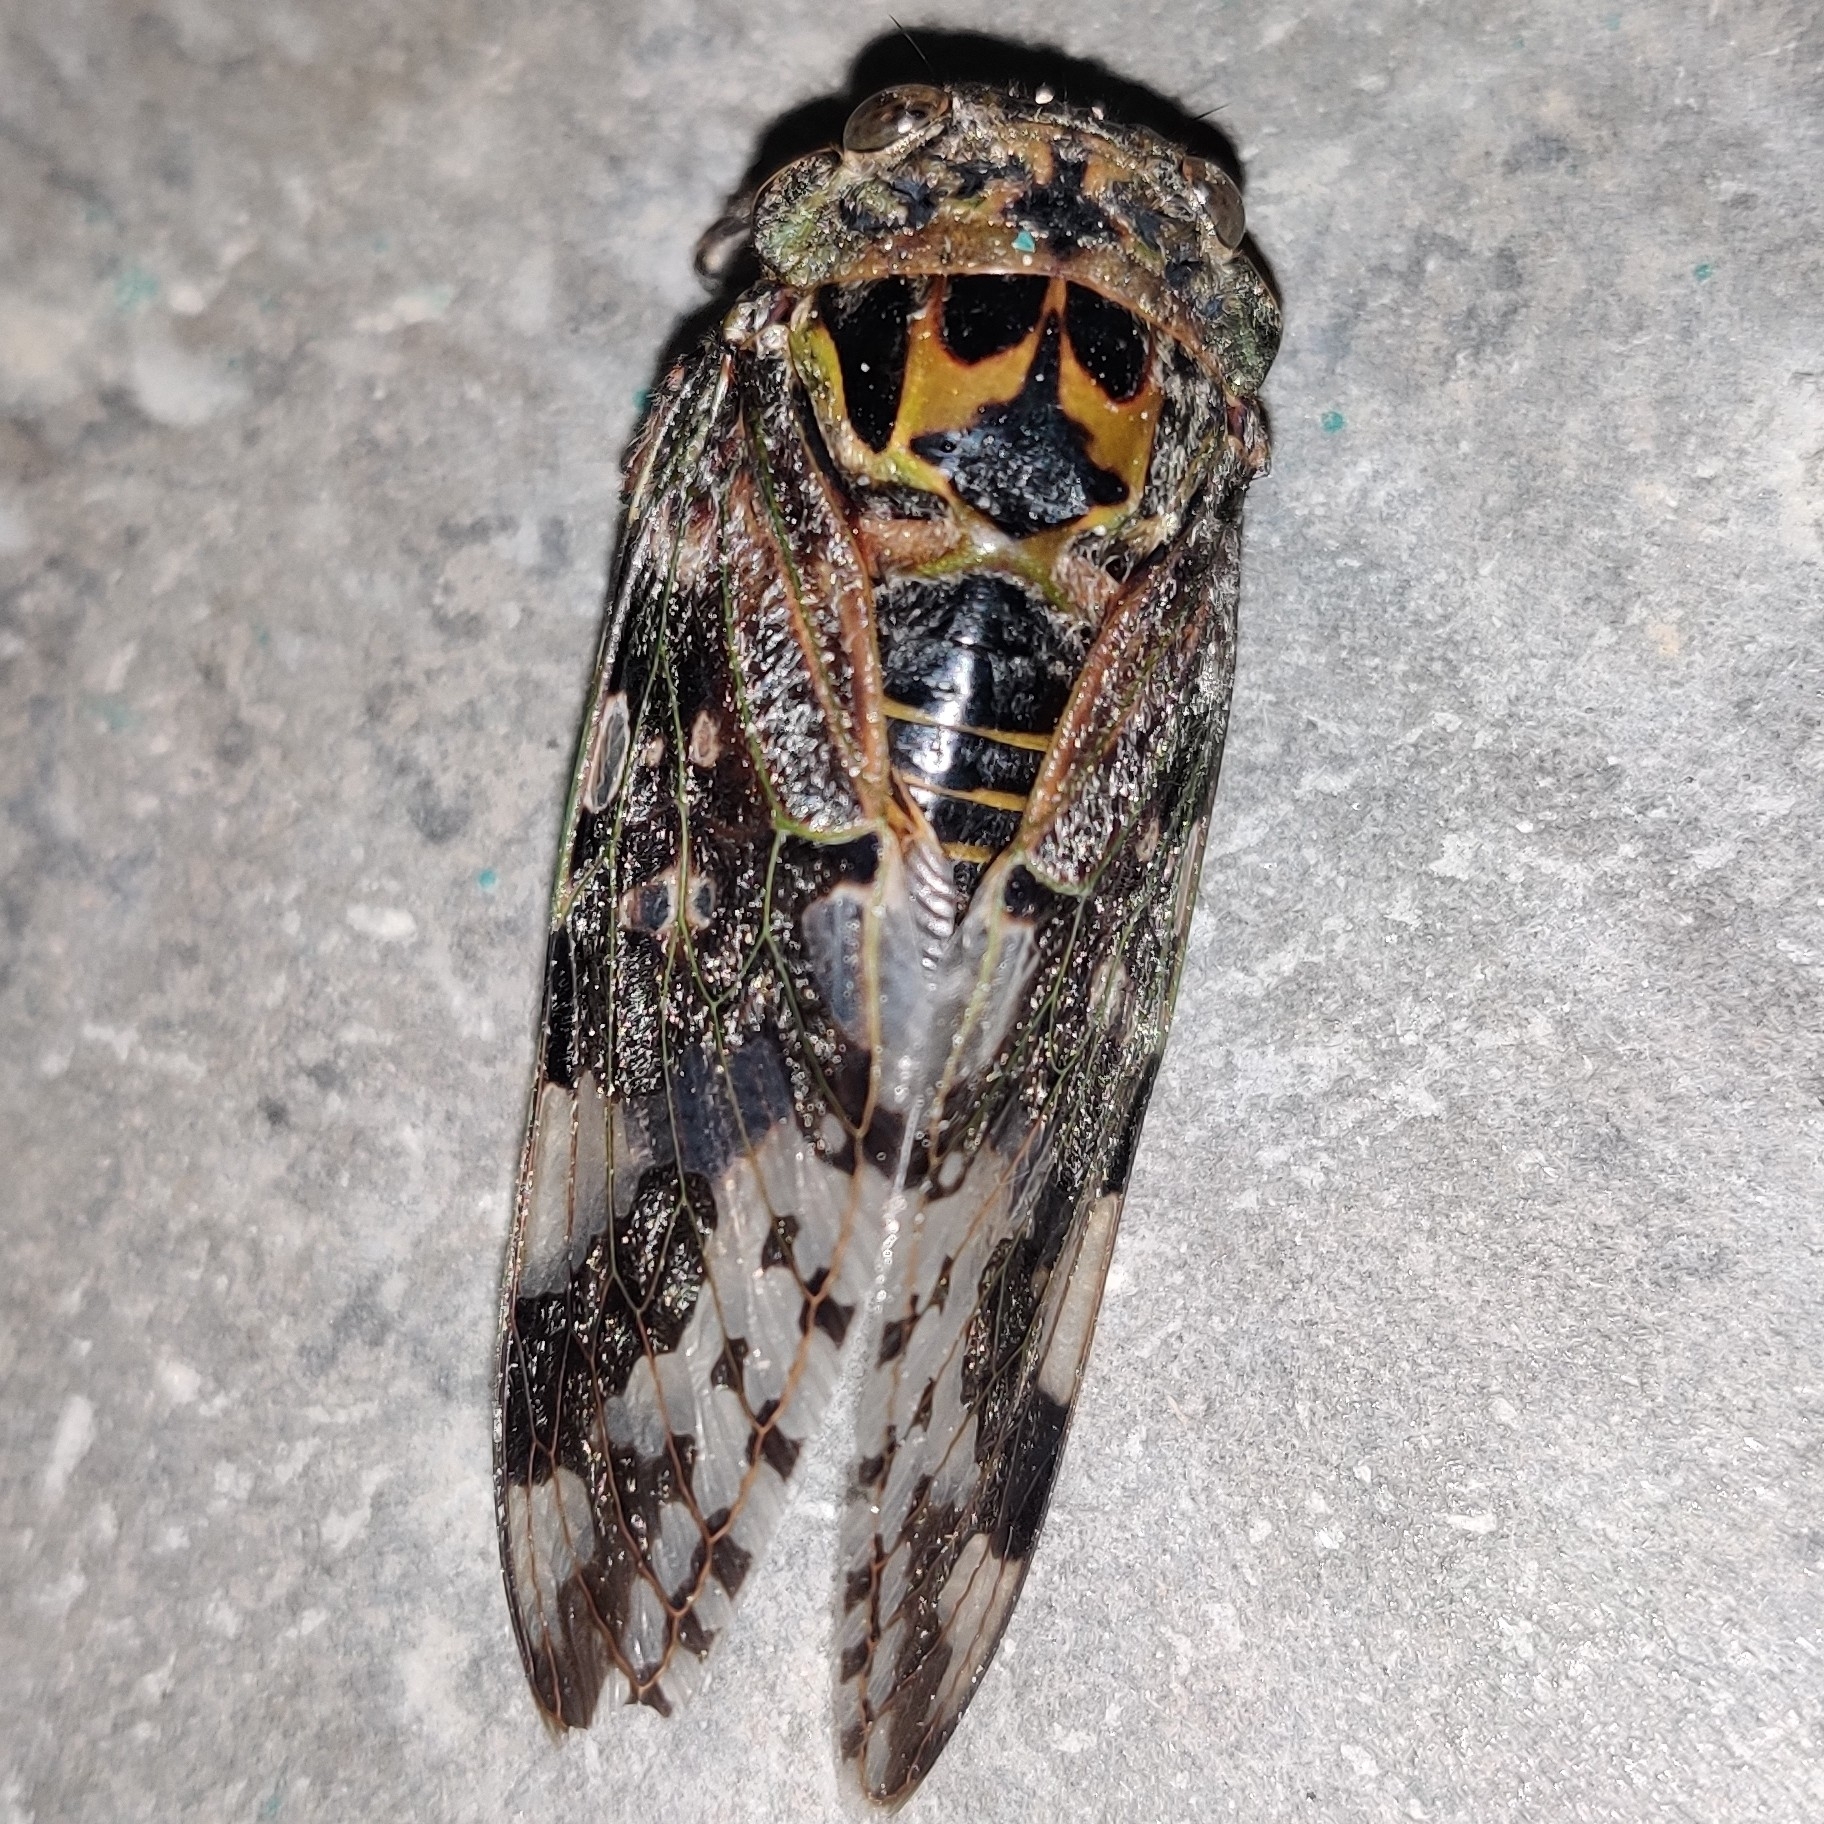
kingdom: Animalia
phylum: Arthropoda
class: Insecta
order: Hemiptera
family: Cicadidae
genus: Eopycna
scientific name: Eopycna repanda
